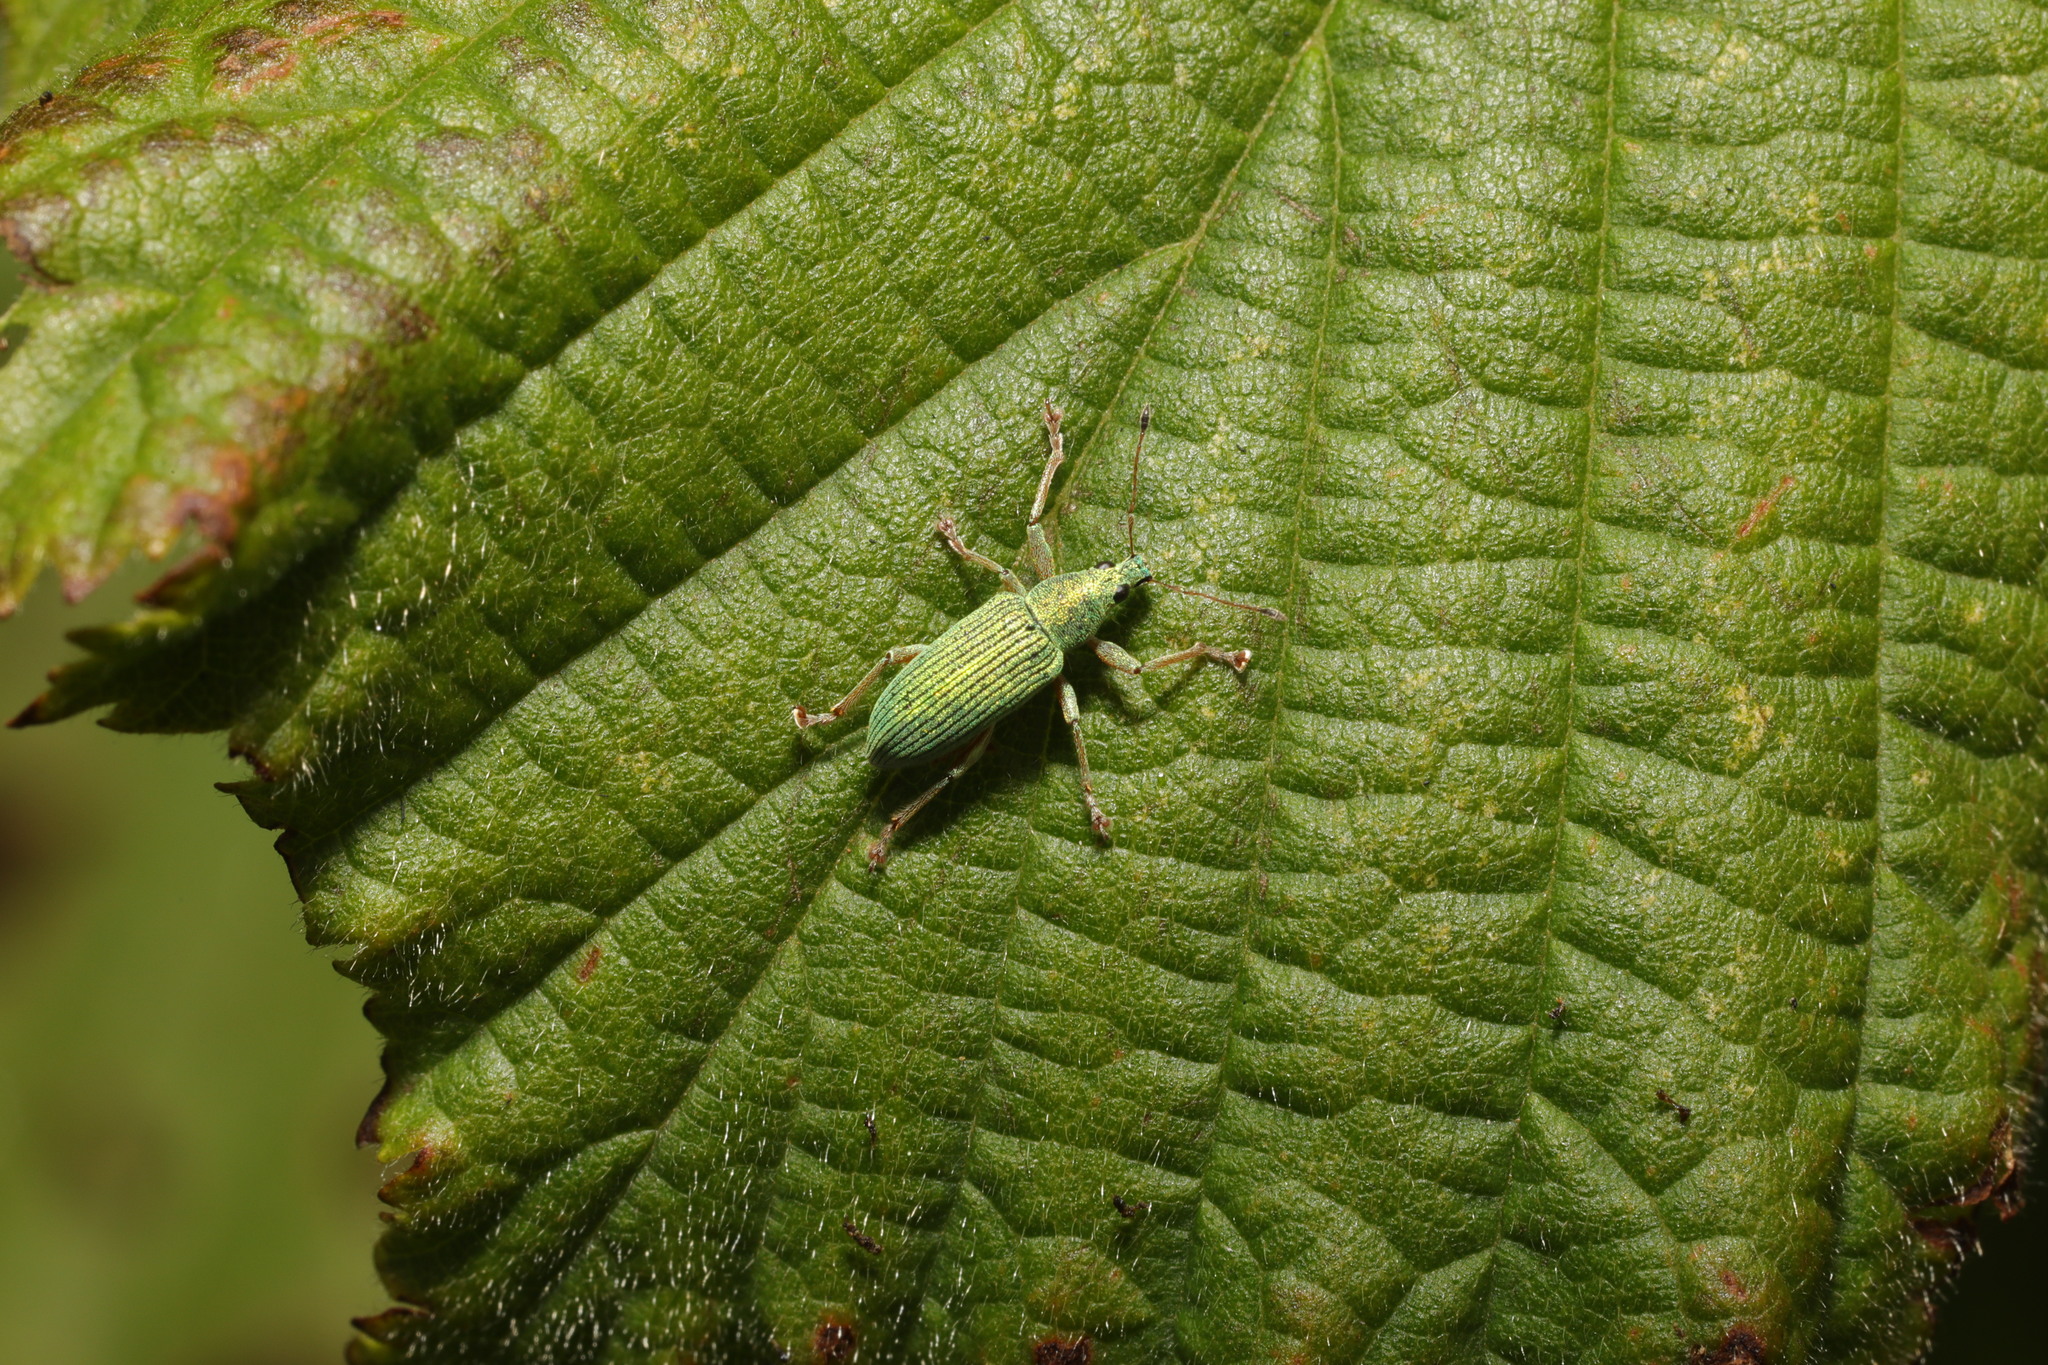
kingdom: Animalia
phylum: Arthropoda
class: Insecta
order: Coleoptera
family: Curculionidae
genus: Polydrusus
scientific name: Polydrusus formosus
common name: Weevil
